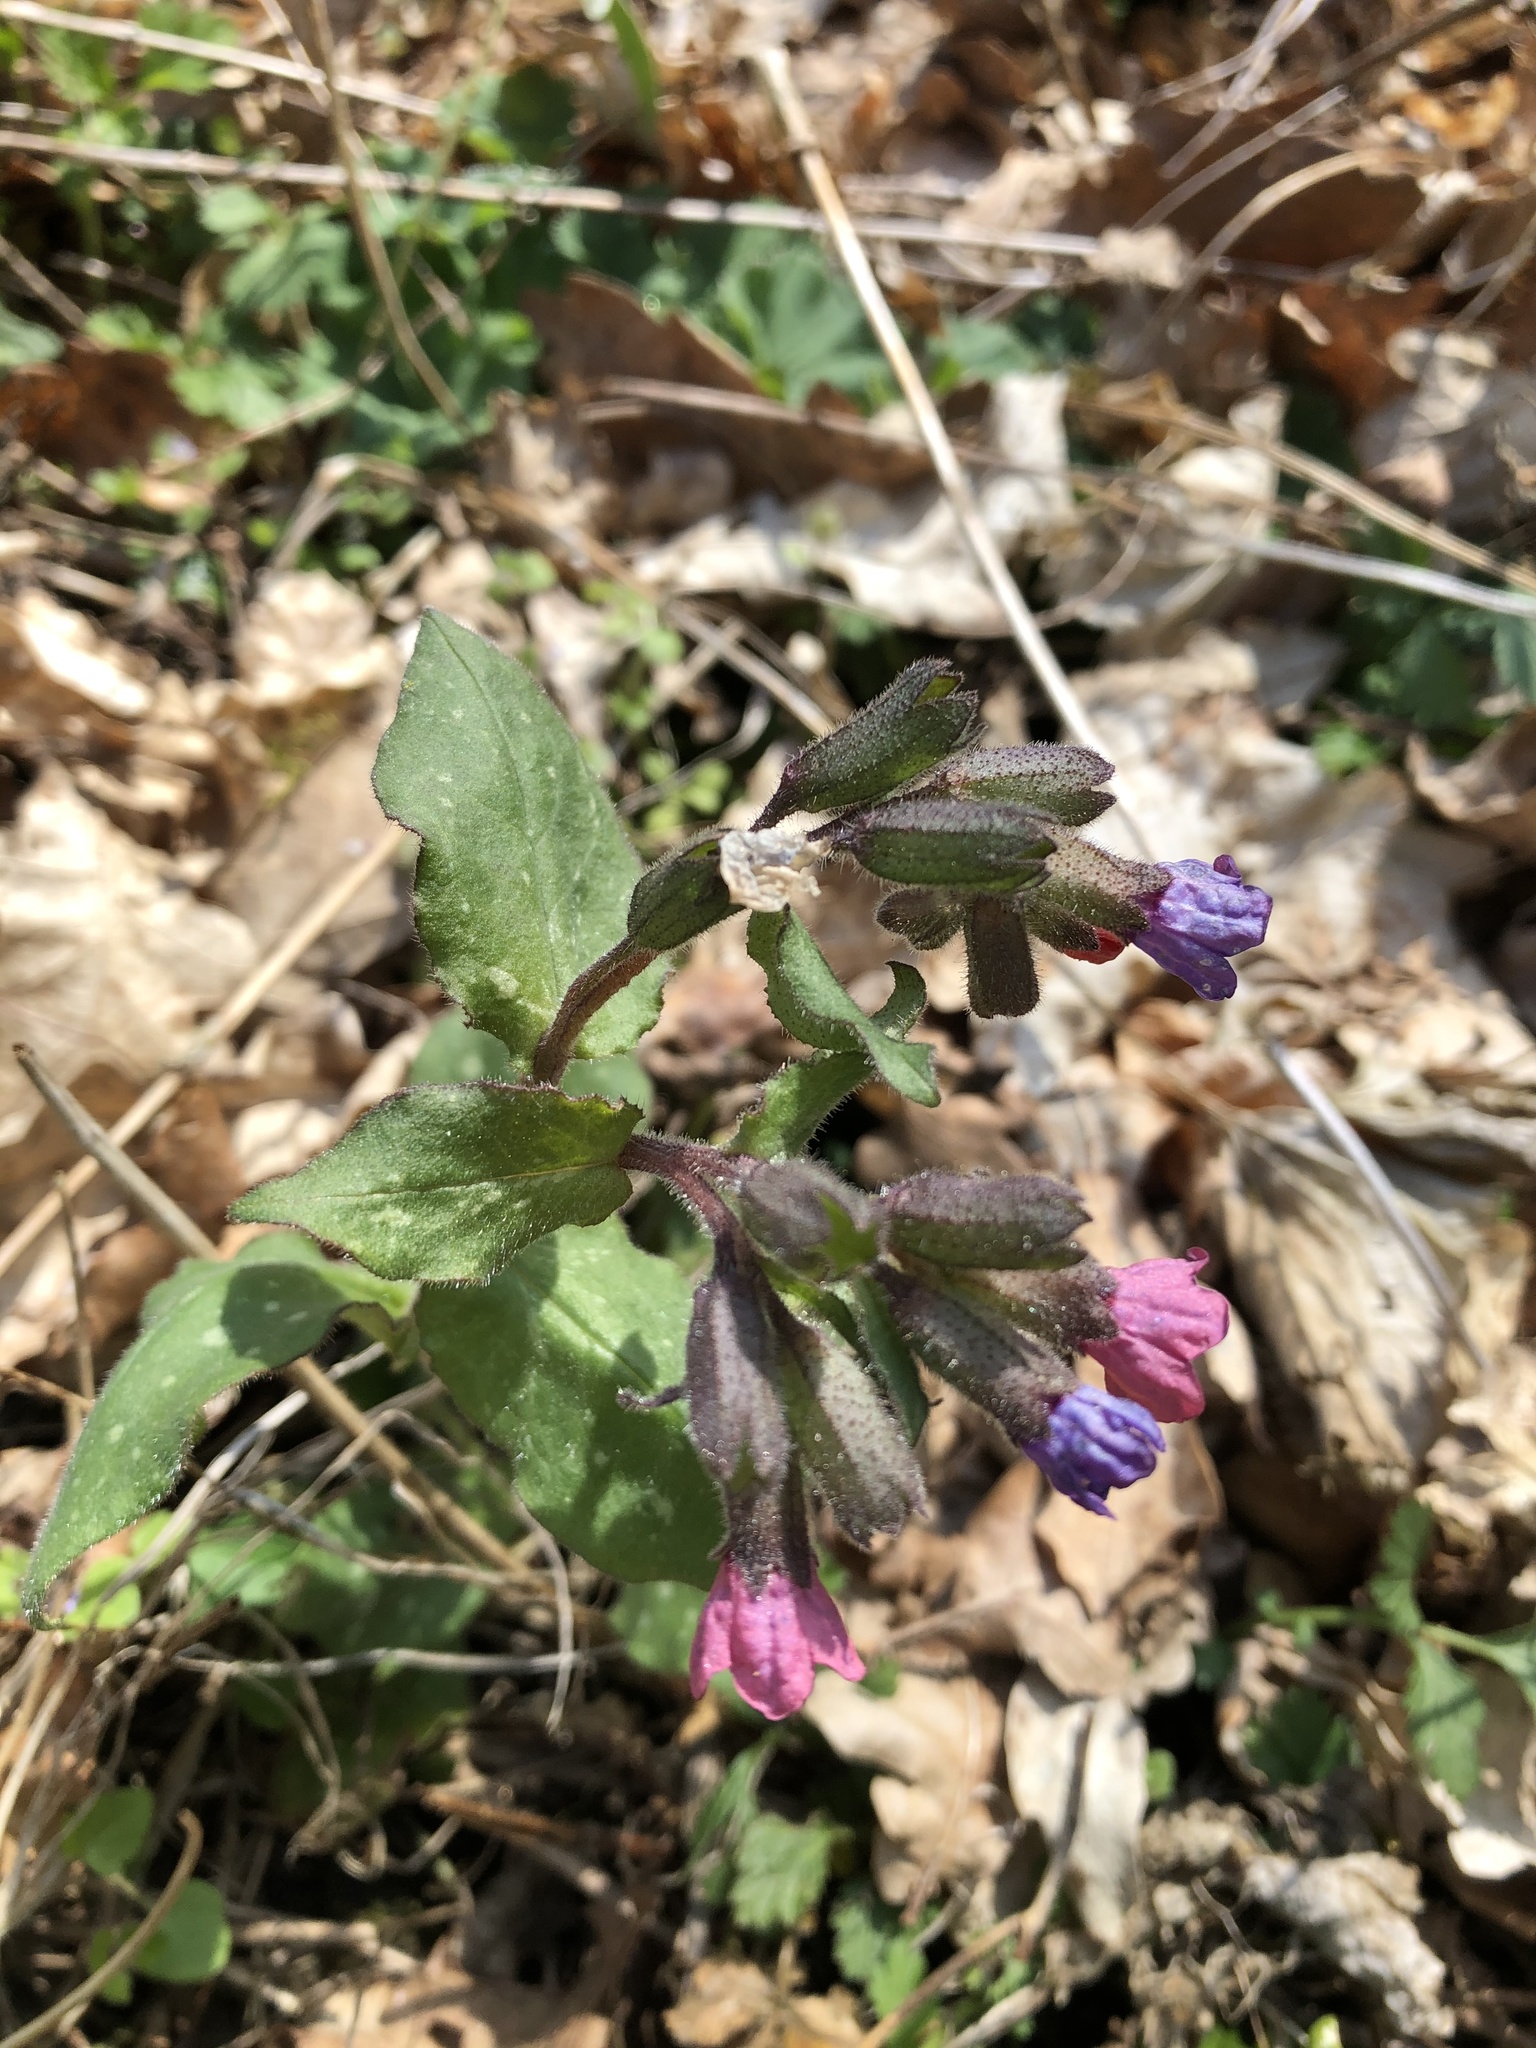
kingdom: Plantae
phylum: Tracheophyta
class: Magnoliopsida
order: Boraginales
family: Boraginaceae
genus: Pulmonaria
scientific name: Pulmonaria officinalis
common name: Lungwort
